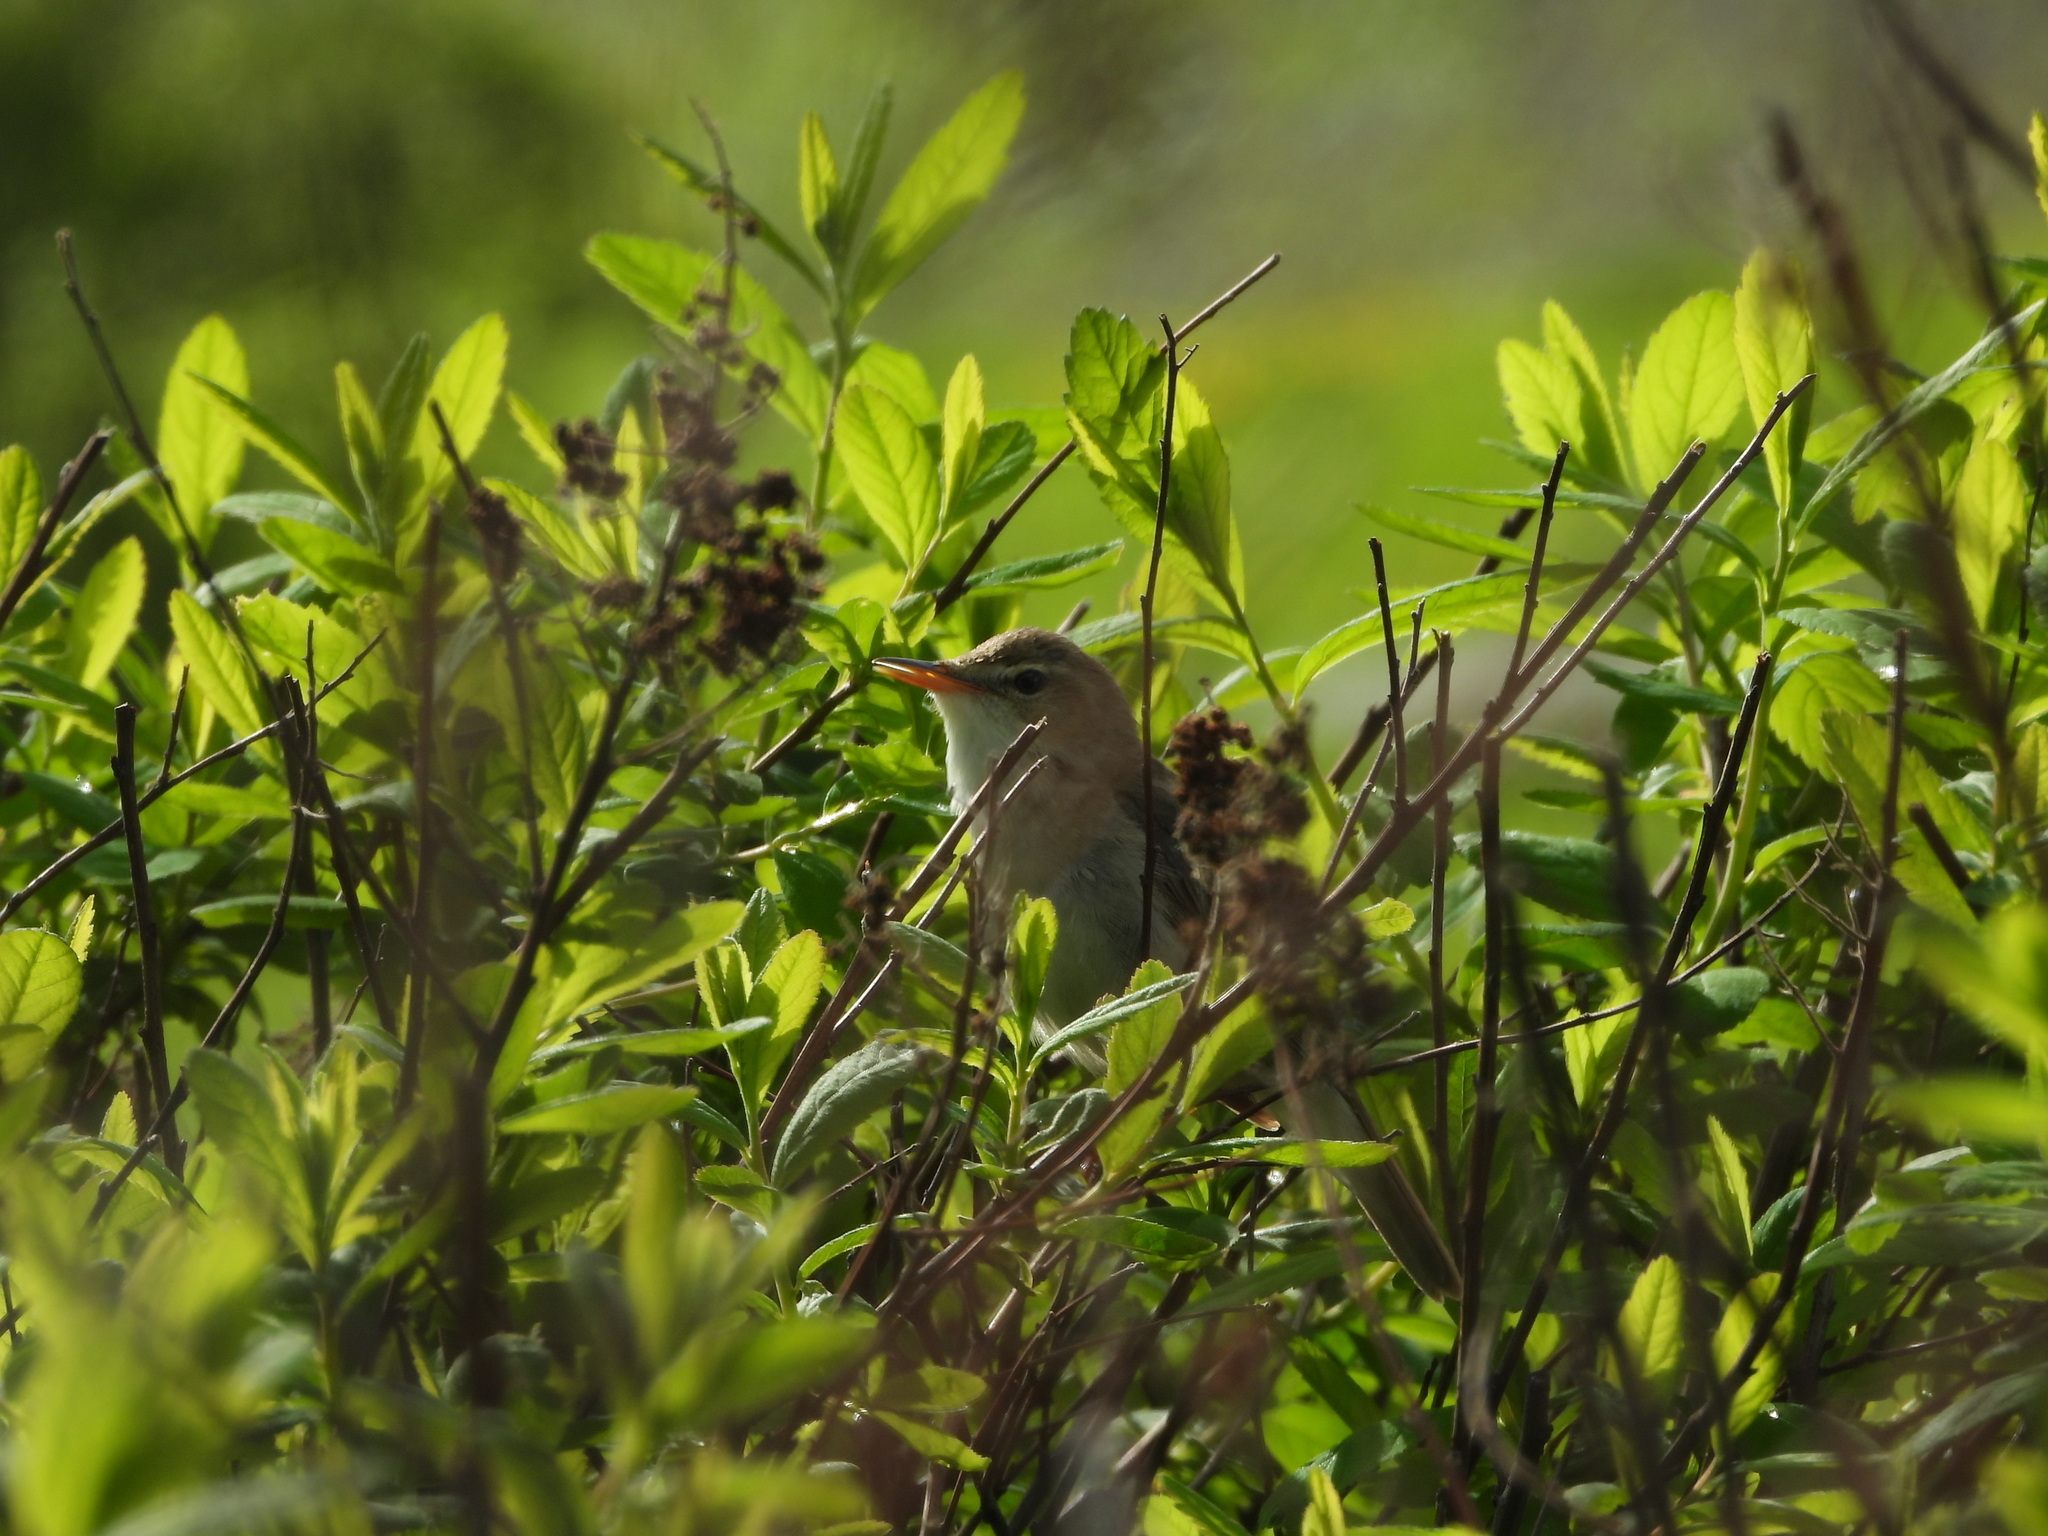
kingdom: Animalia
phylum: Chordata
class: Aves
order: Passeriformes
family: Acrocephalidae
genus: Acrocephalus
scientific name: Acrocephalus dumetorum
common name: Blyth's reed warbler
